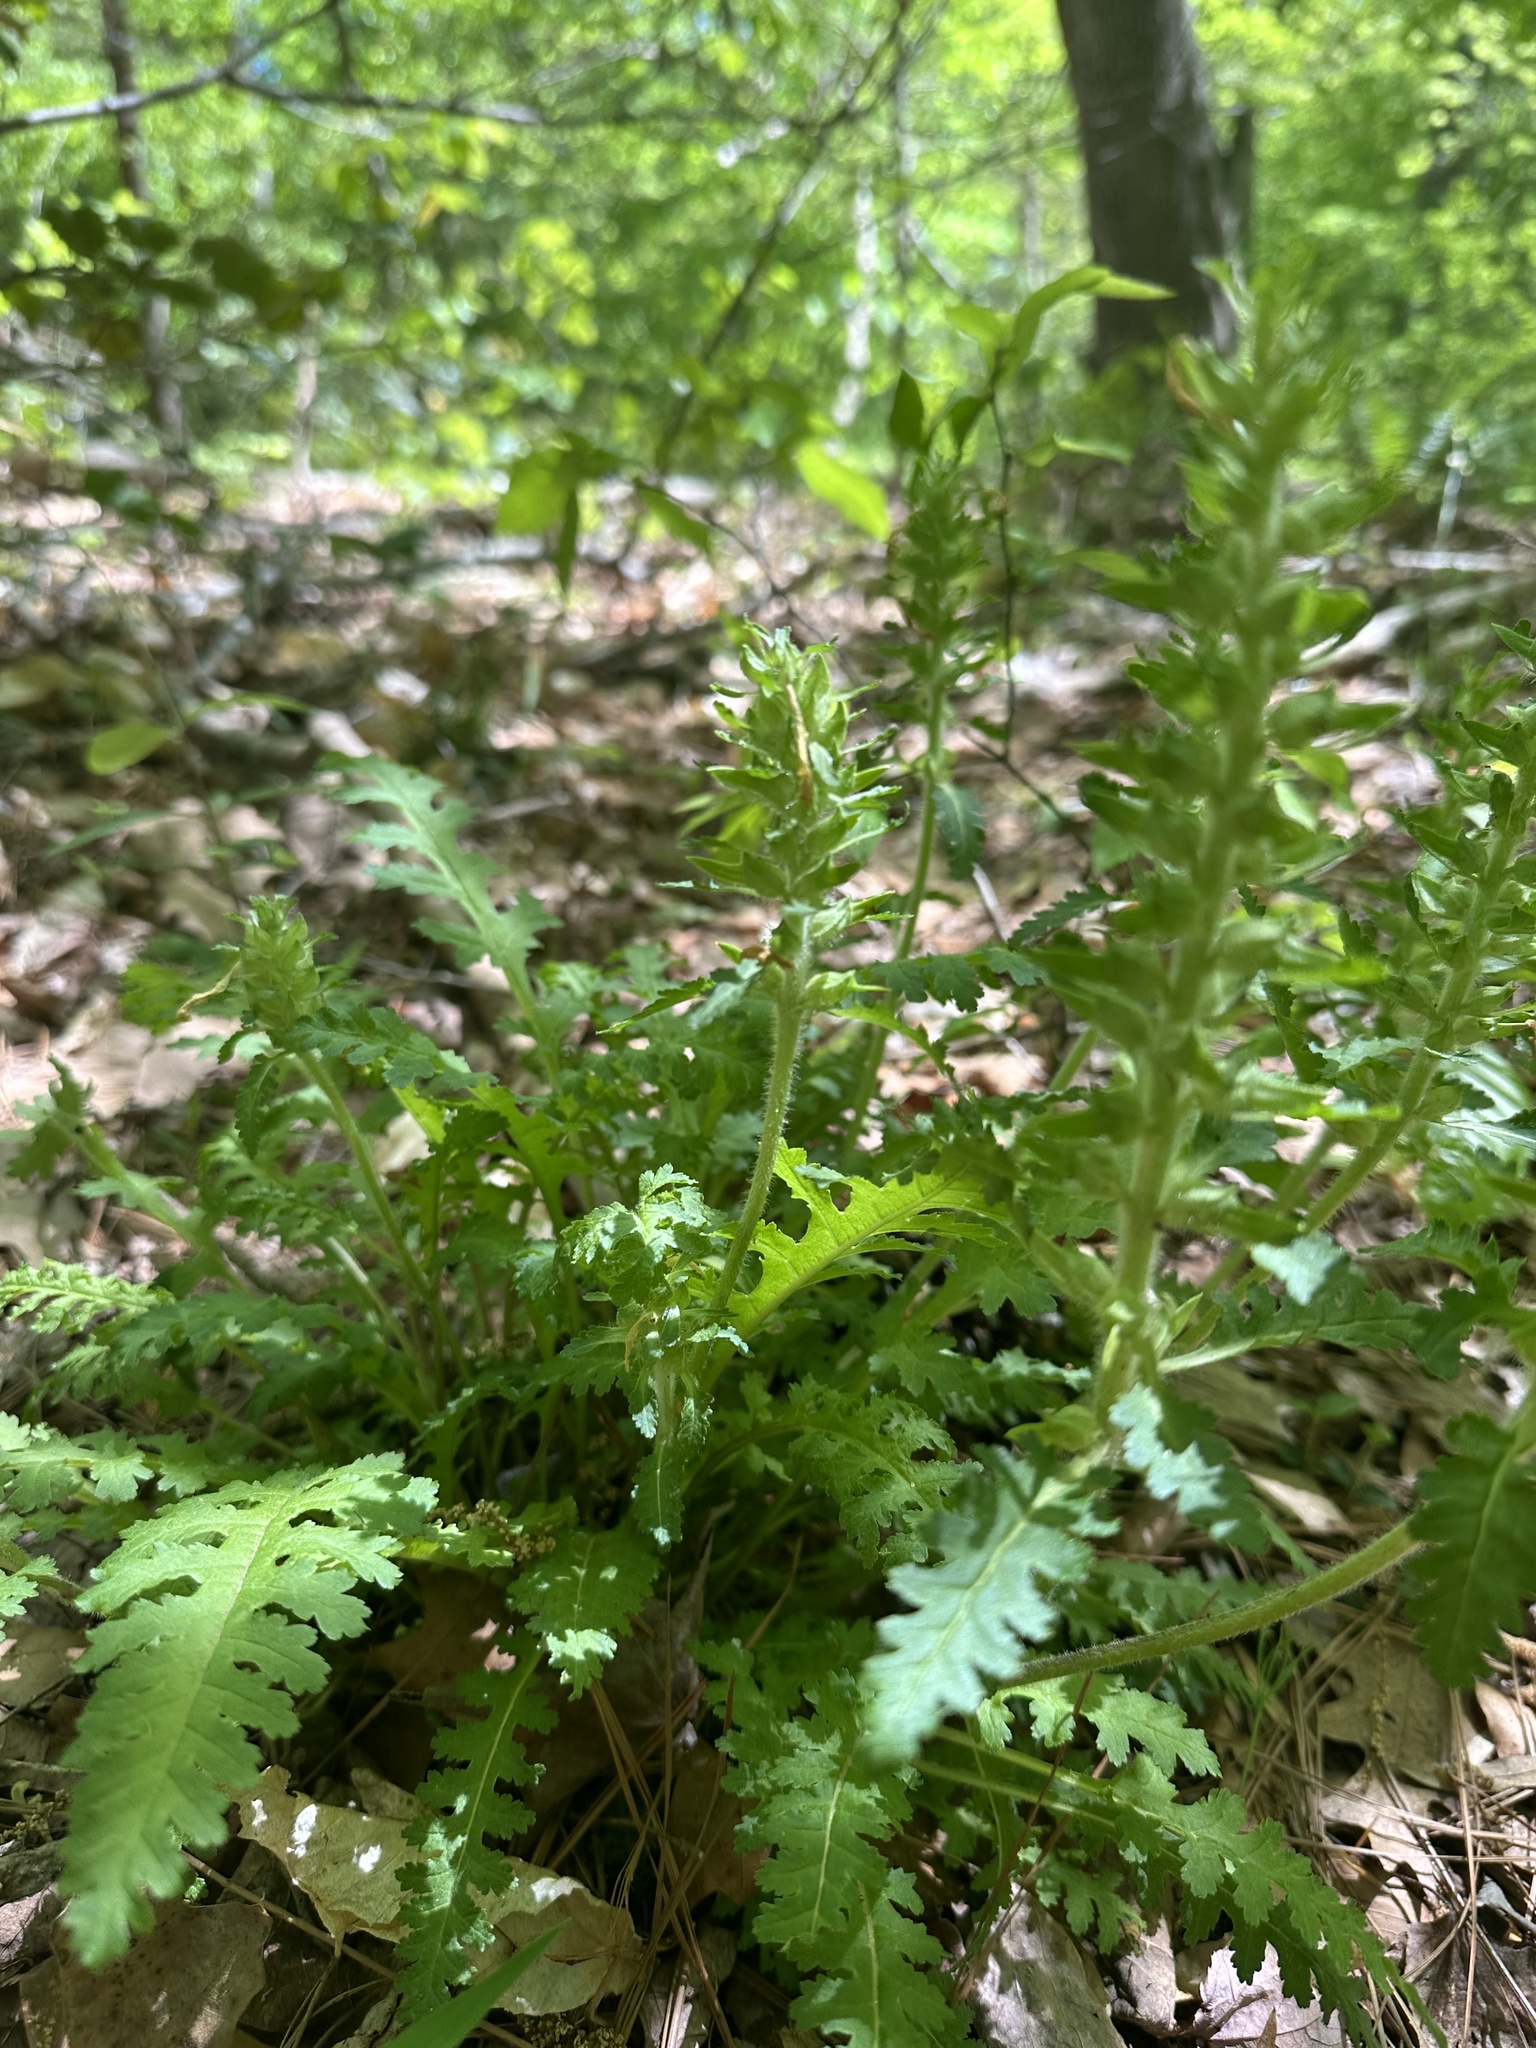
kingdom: Plantae
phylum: Tracheophyta
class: Magnoliopsida
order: Lamiales
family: Orobanchaceae
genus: Pedicularis
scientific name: Pedicularis canadensis
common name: Early lousewort
